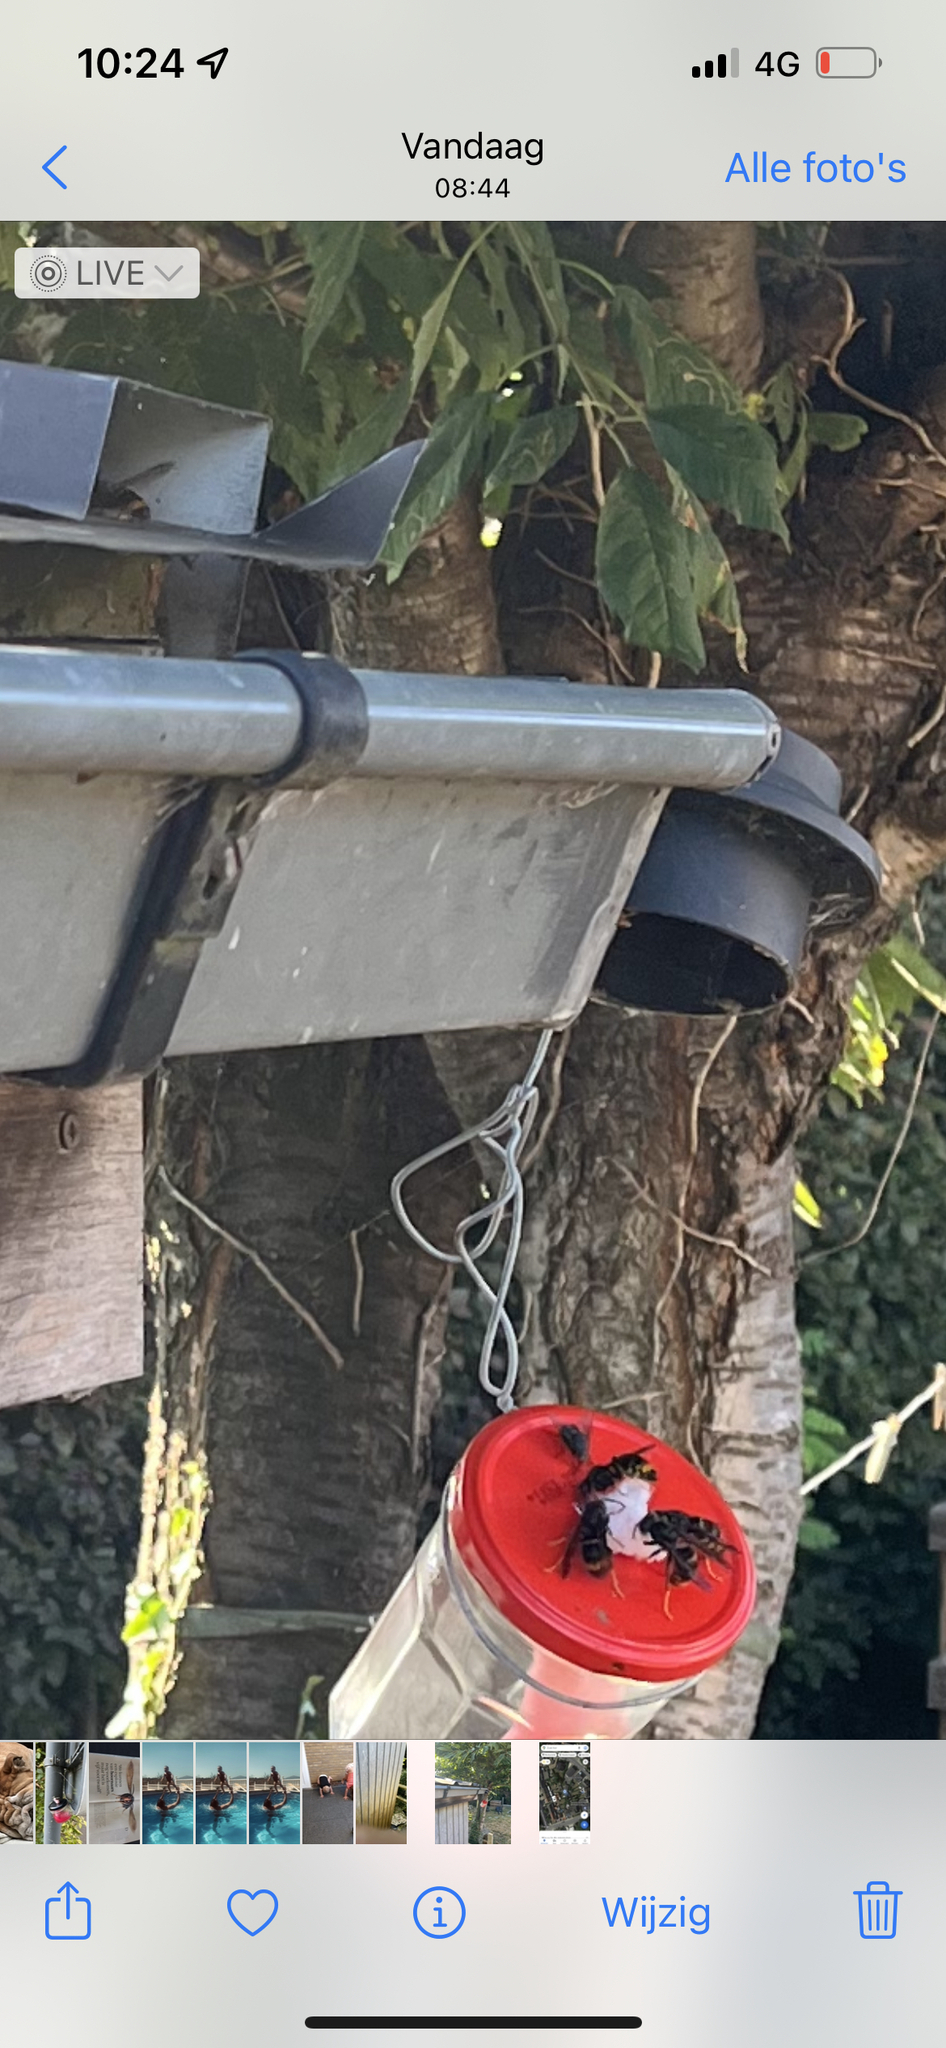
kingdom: Animalia
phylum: Arthropoda
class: Insecta
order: Hymenoptera
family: Vespidae
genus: Vespa
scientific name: Vespa velutina
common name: Asian hornet
